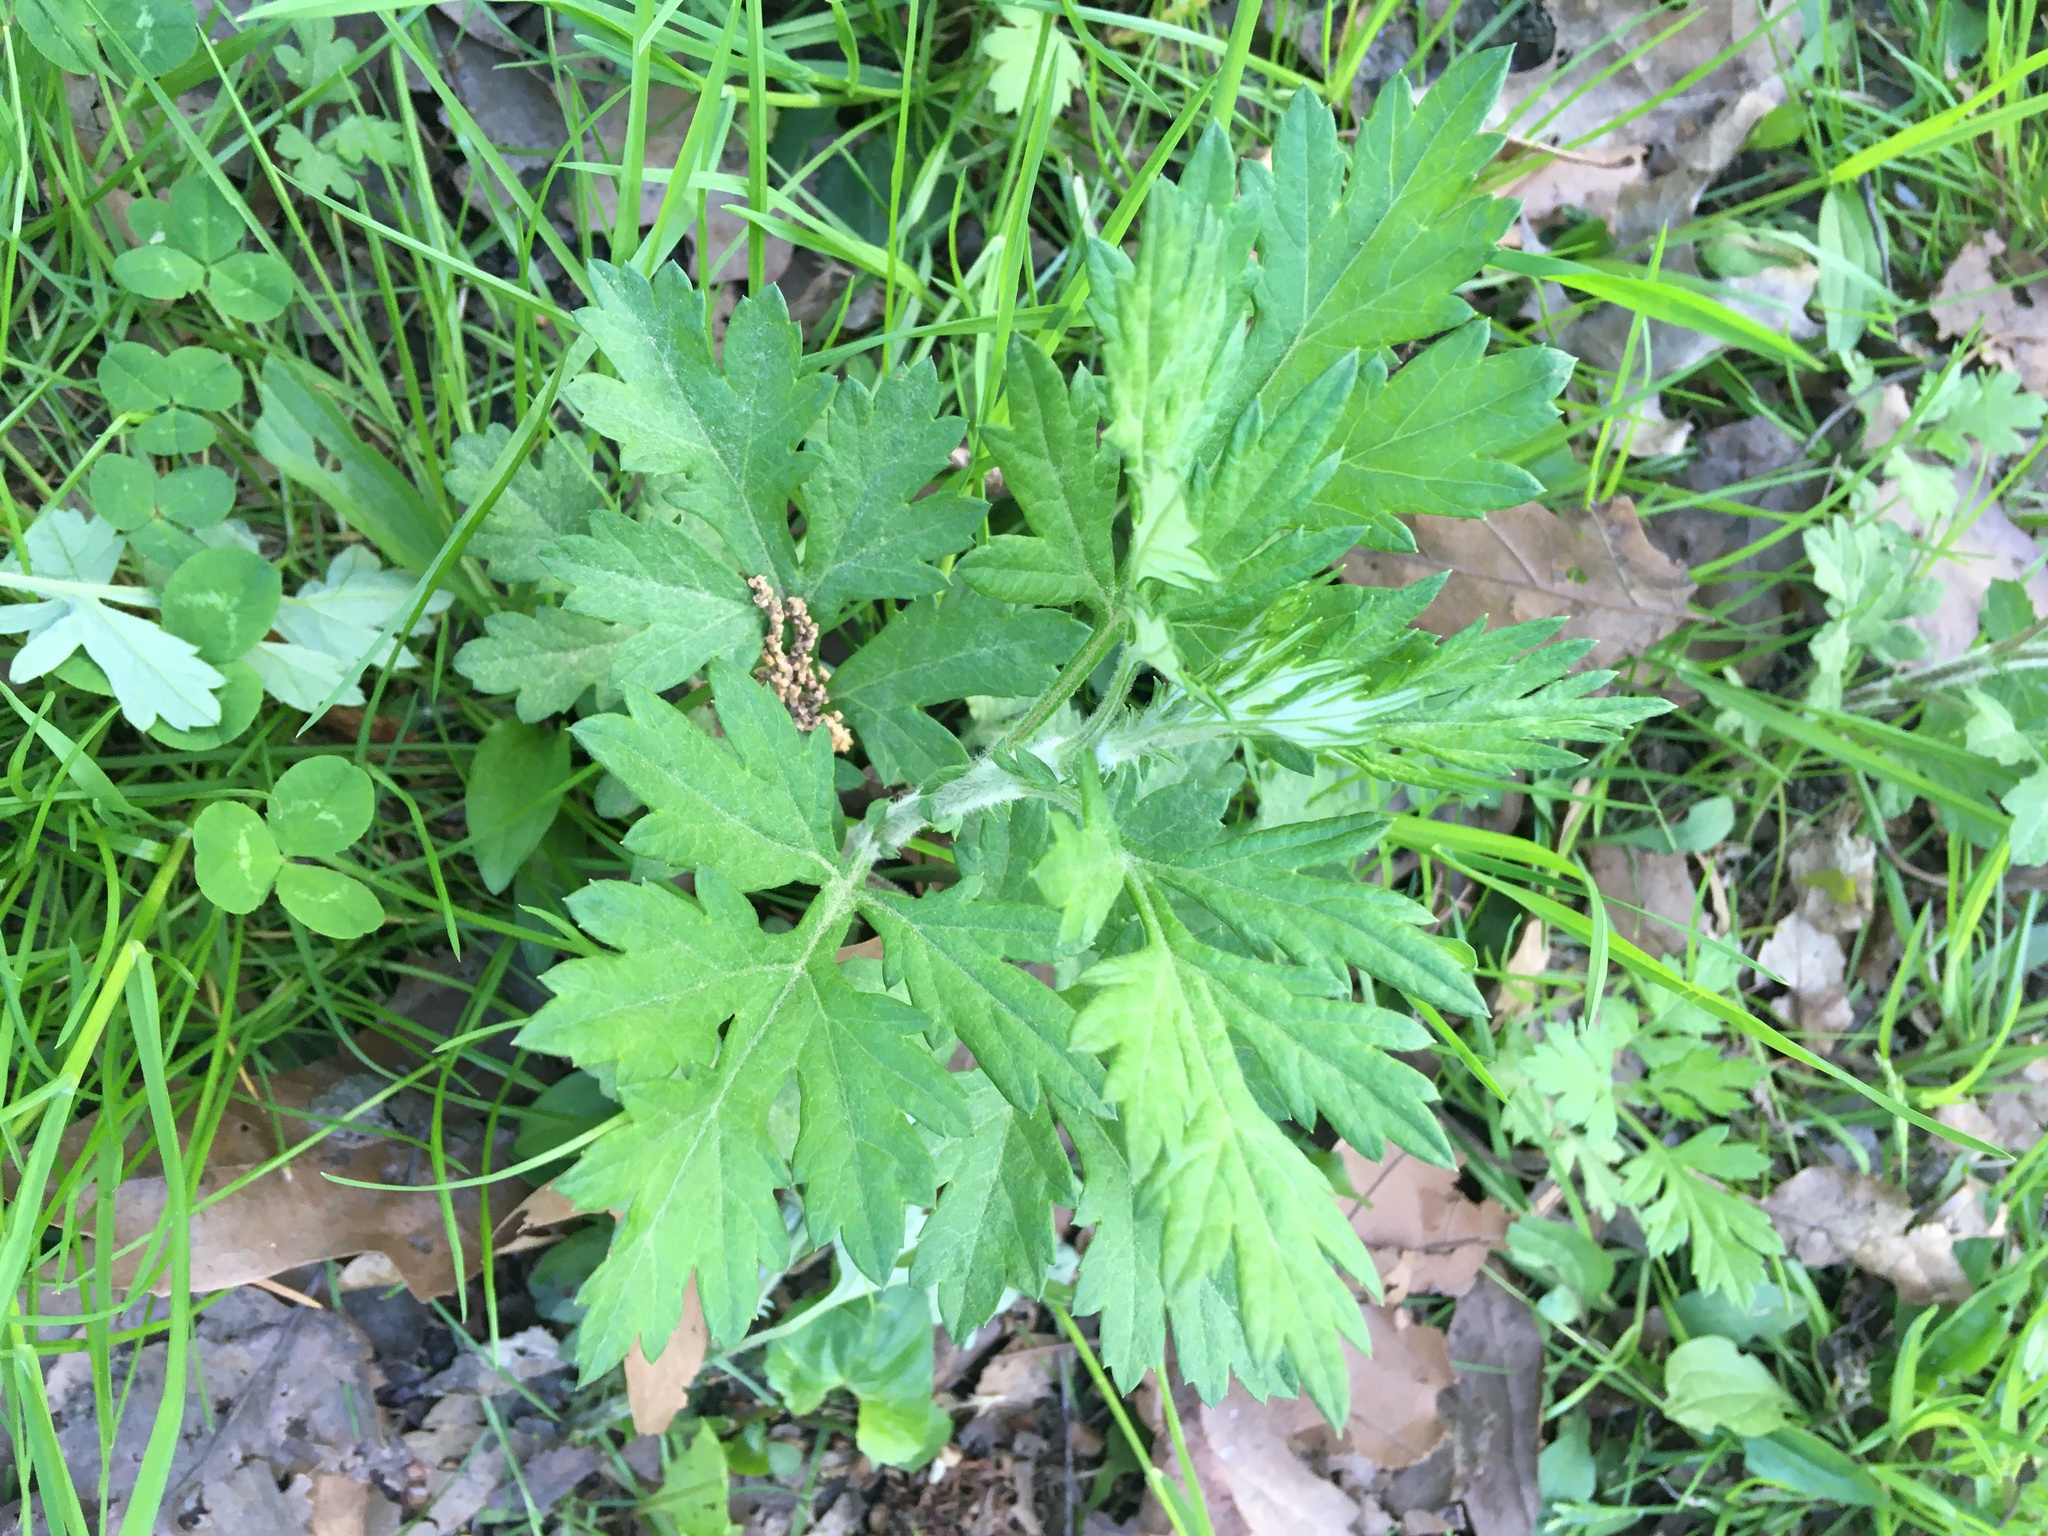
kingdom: Plantae
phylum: Tracheophyta
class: Magnoliopsida
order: Asterales
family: Asteraceae
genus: Artemisia
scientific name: Artemisia vulgaris
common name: Mugwort
